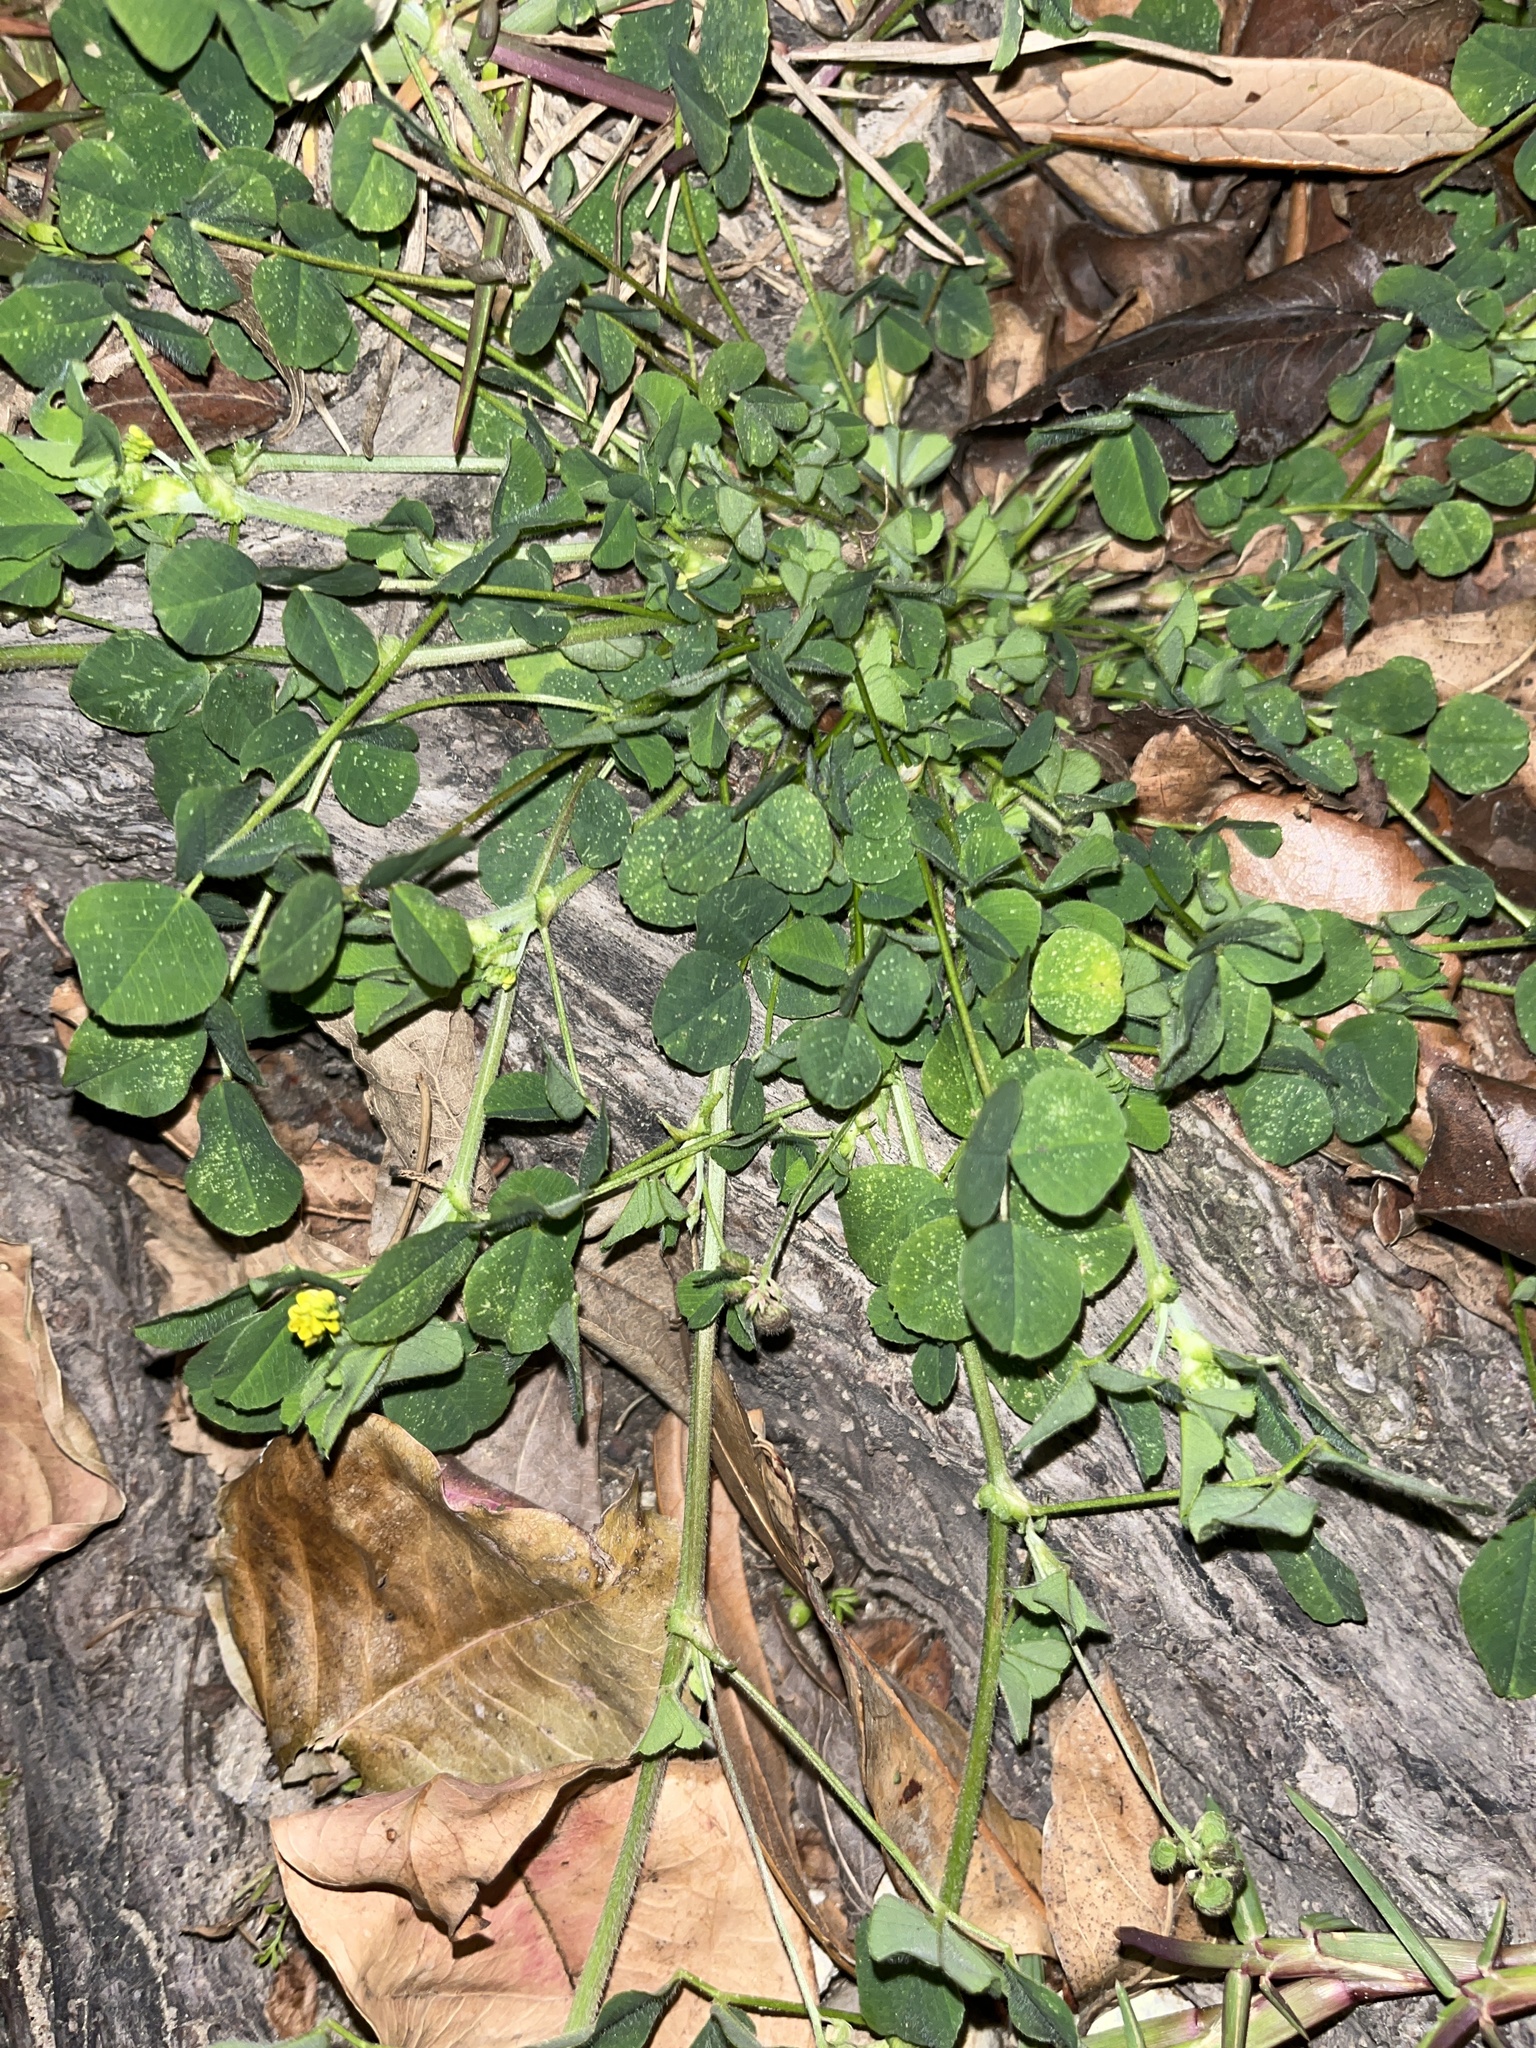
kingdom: Plantae
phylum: Tracheophyta
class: Magnoliopsida
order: Fabales
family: Fabaceae
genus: Medicago
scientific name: Medicago lupulina
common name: Black medick
